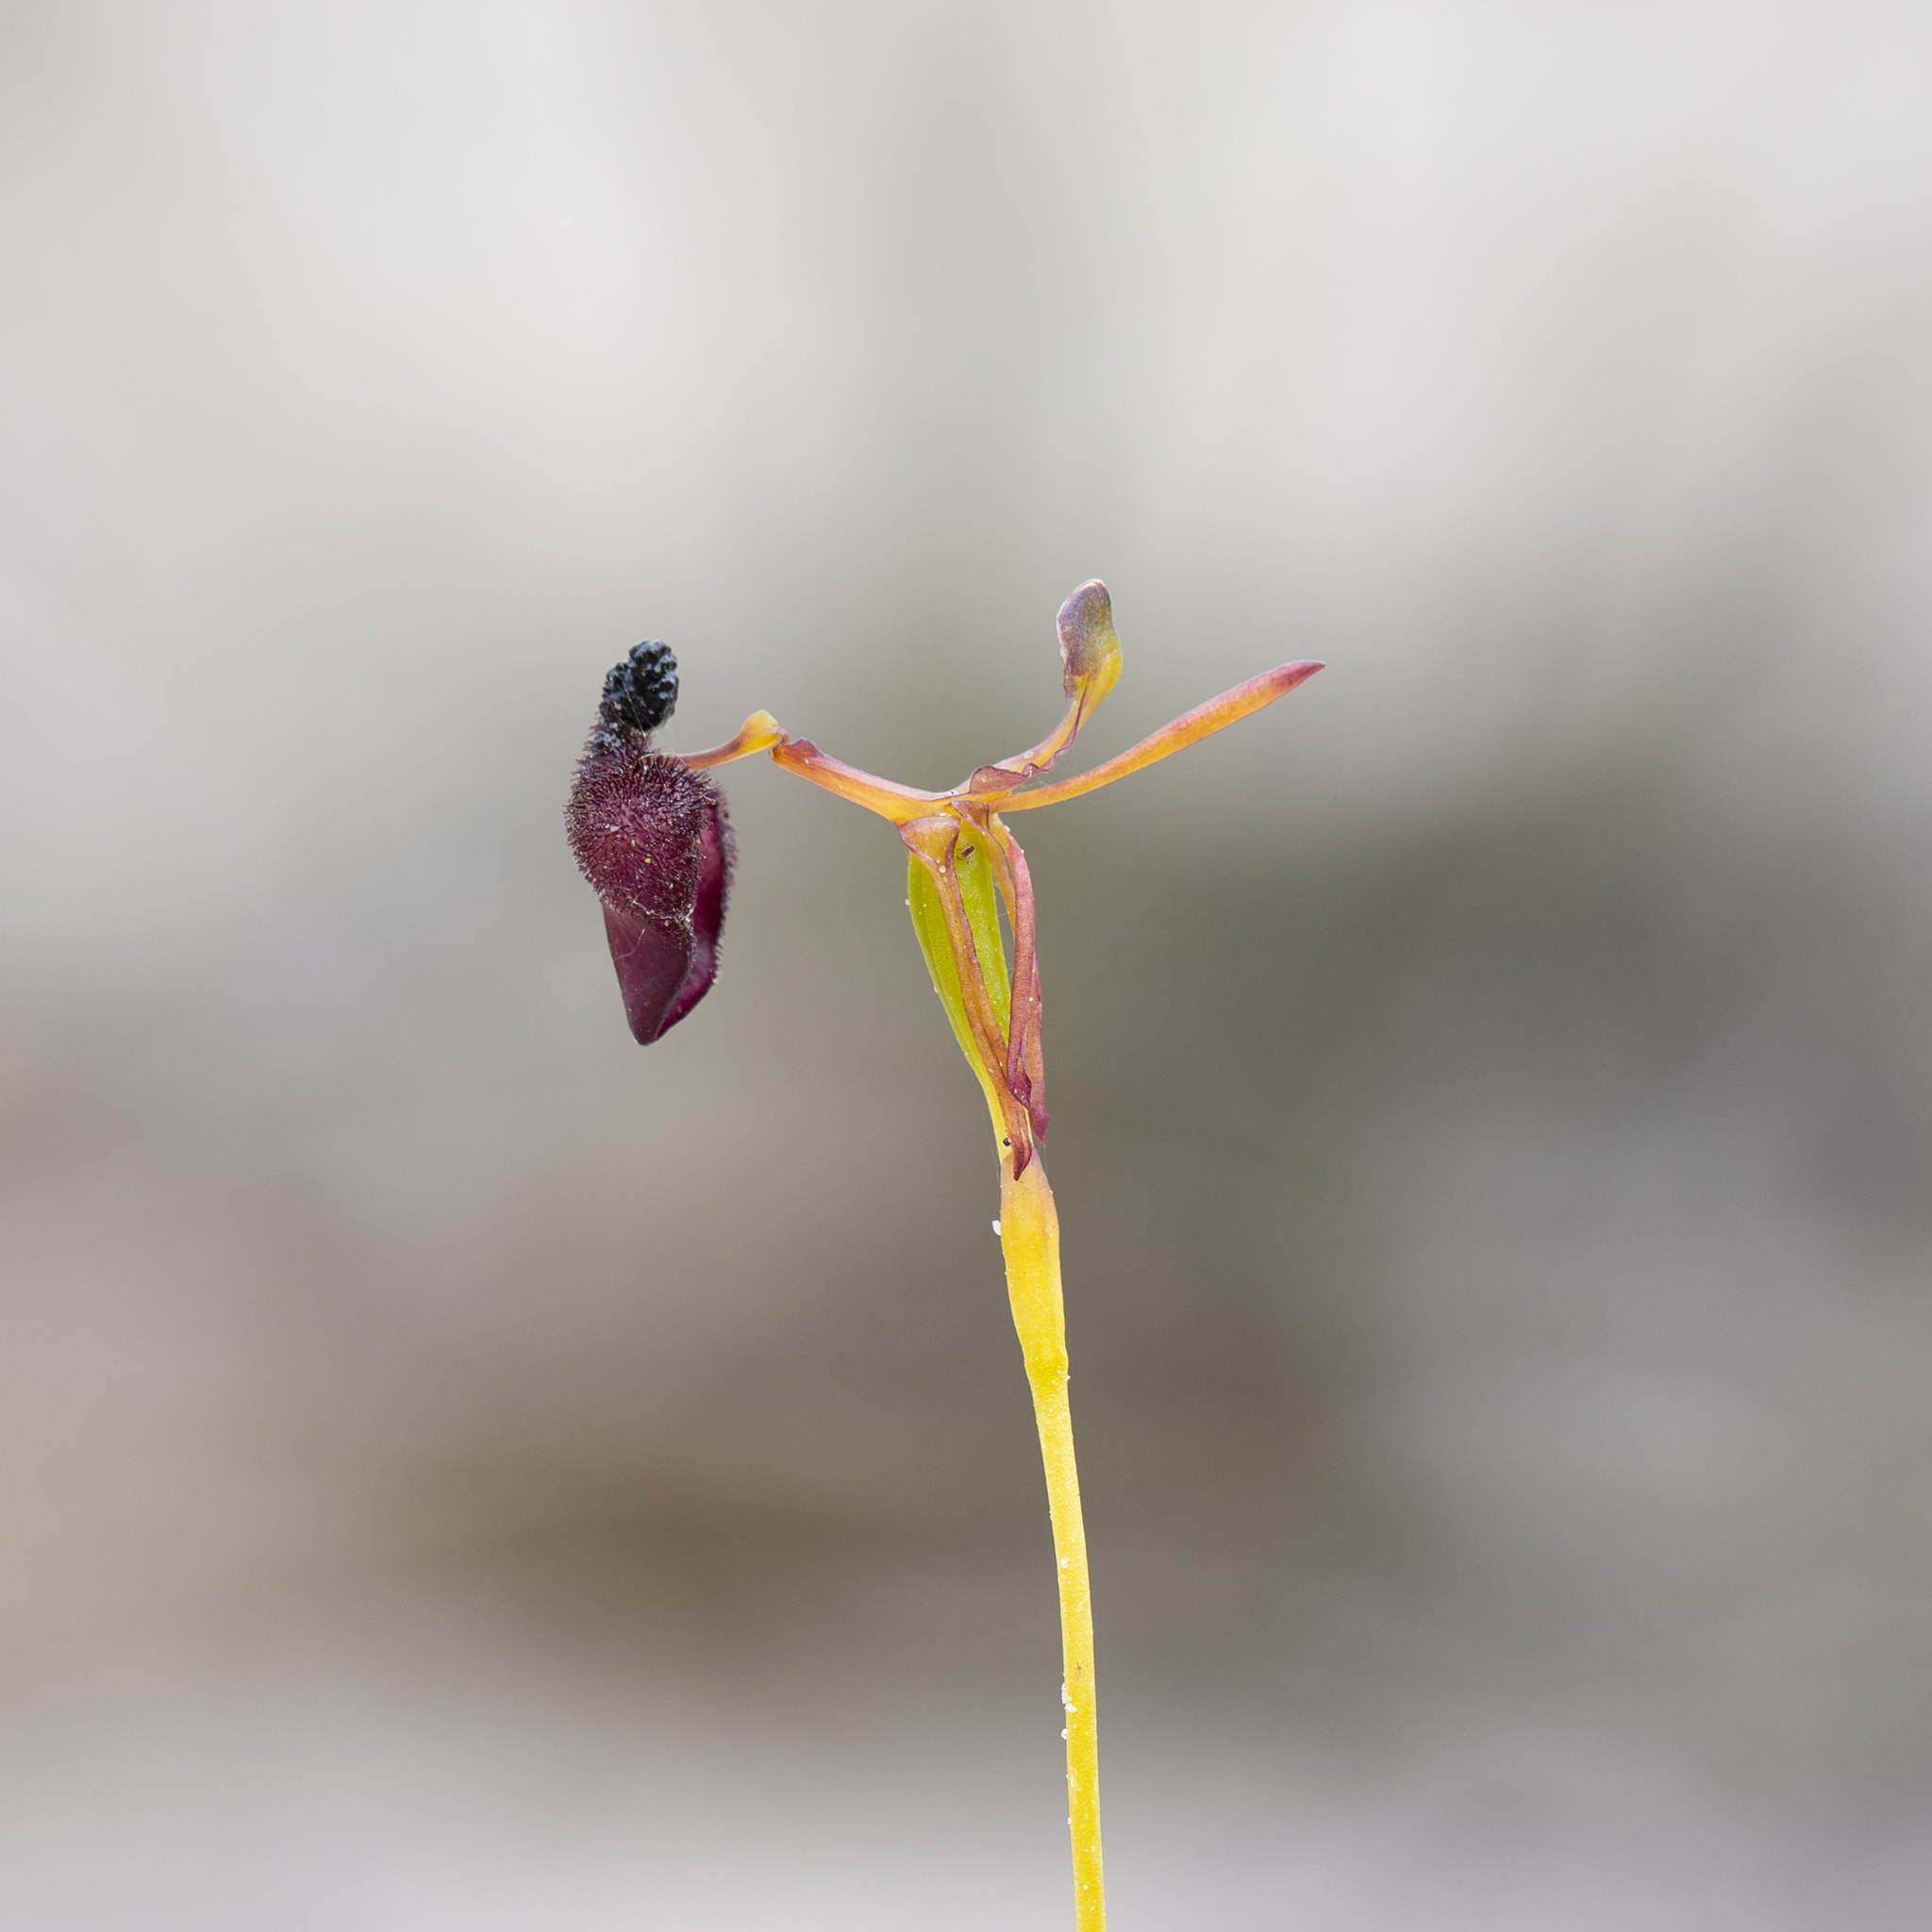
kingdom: Plantae
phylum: Tracheophyta
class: Liliopsida
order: Asparagales
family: Orchidaceae
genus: Drakaea
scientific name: Drakaea glyptodon
